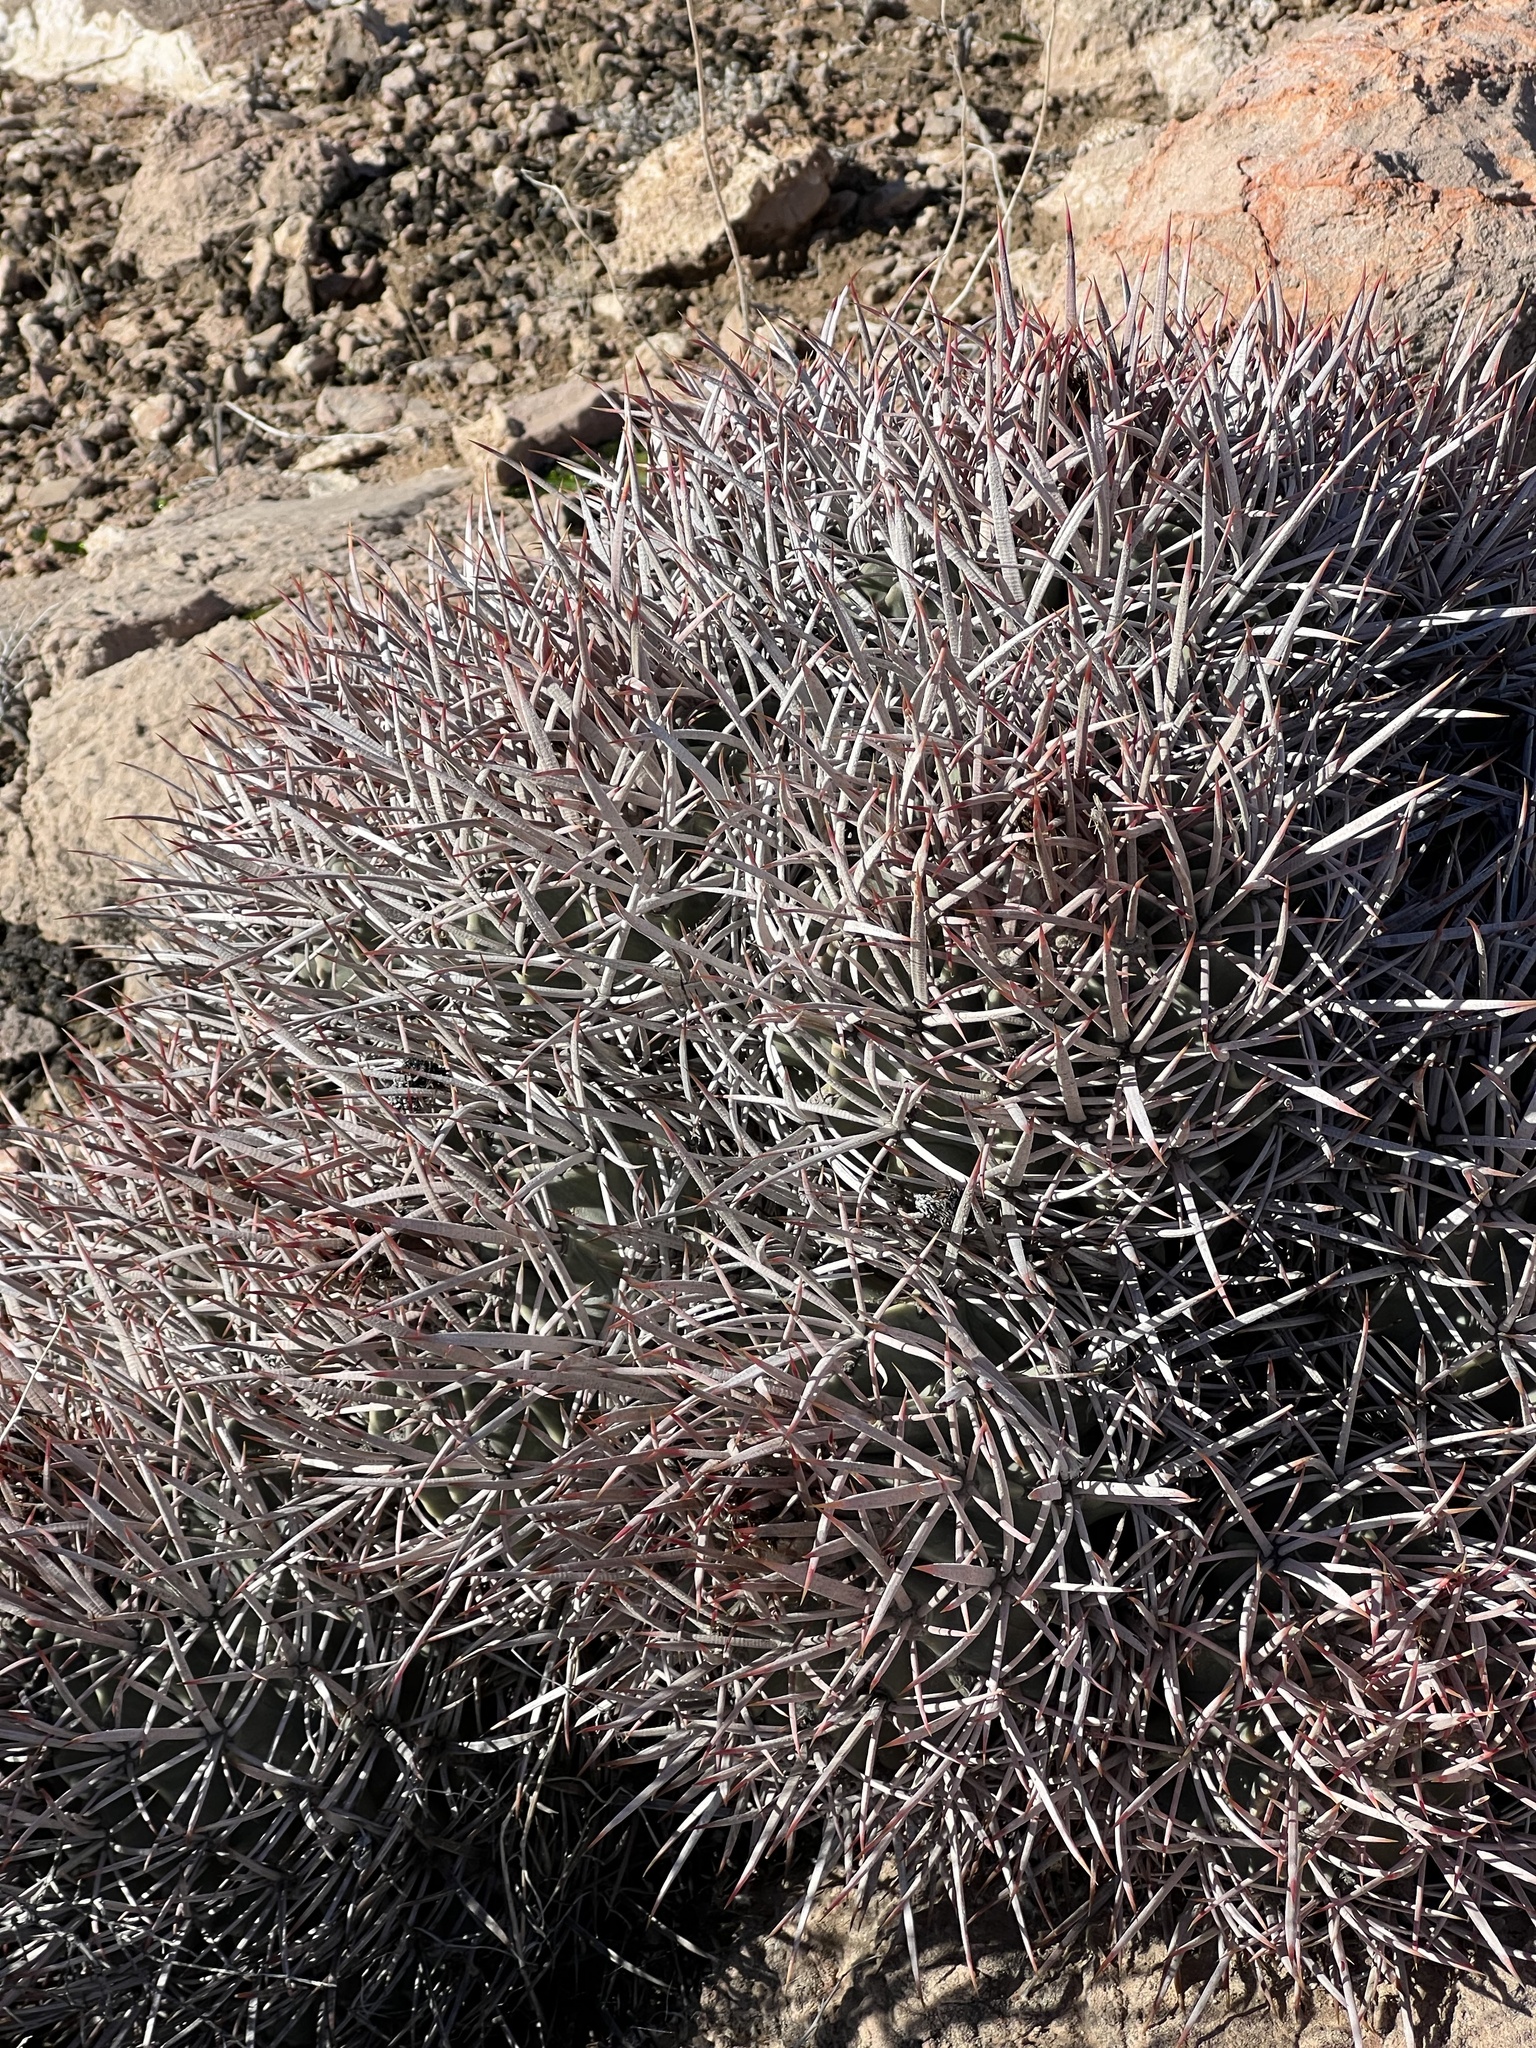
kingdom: Plantae
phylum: Tracheophyta
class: Magnoliopsida
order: Caryophyllales
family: Cactaceae
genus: Echinocactus
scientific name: Echinocactus polycephalus
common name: Cottontop cactus
